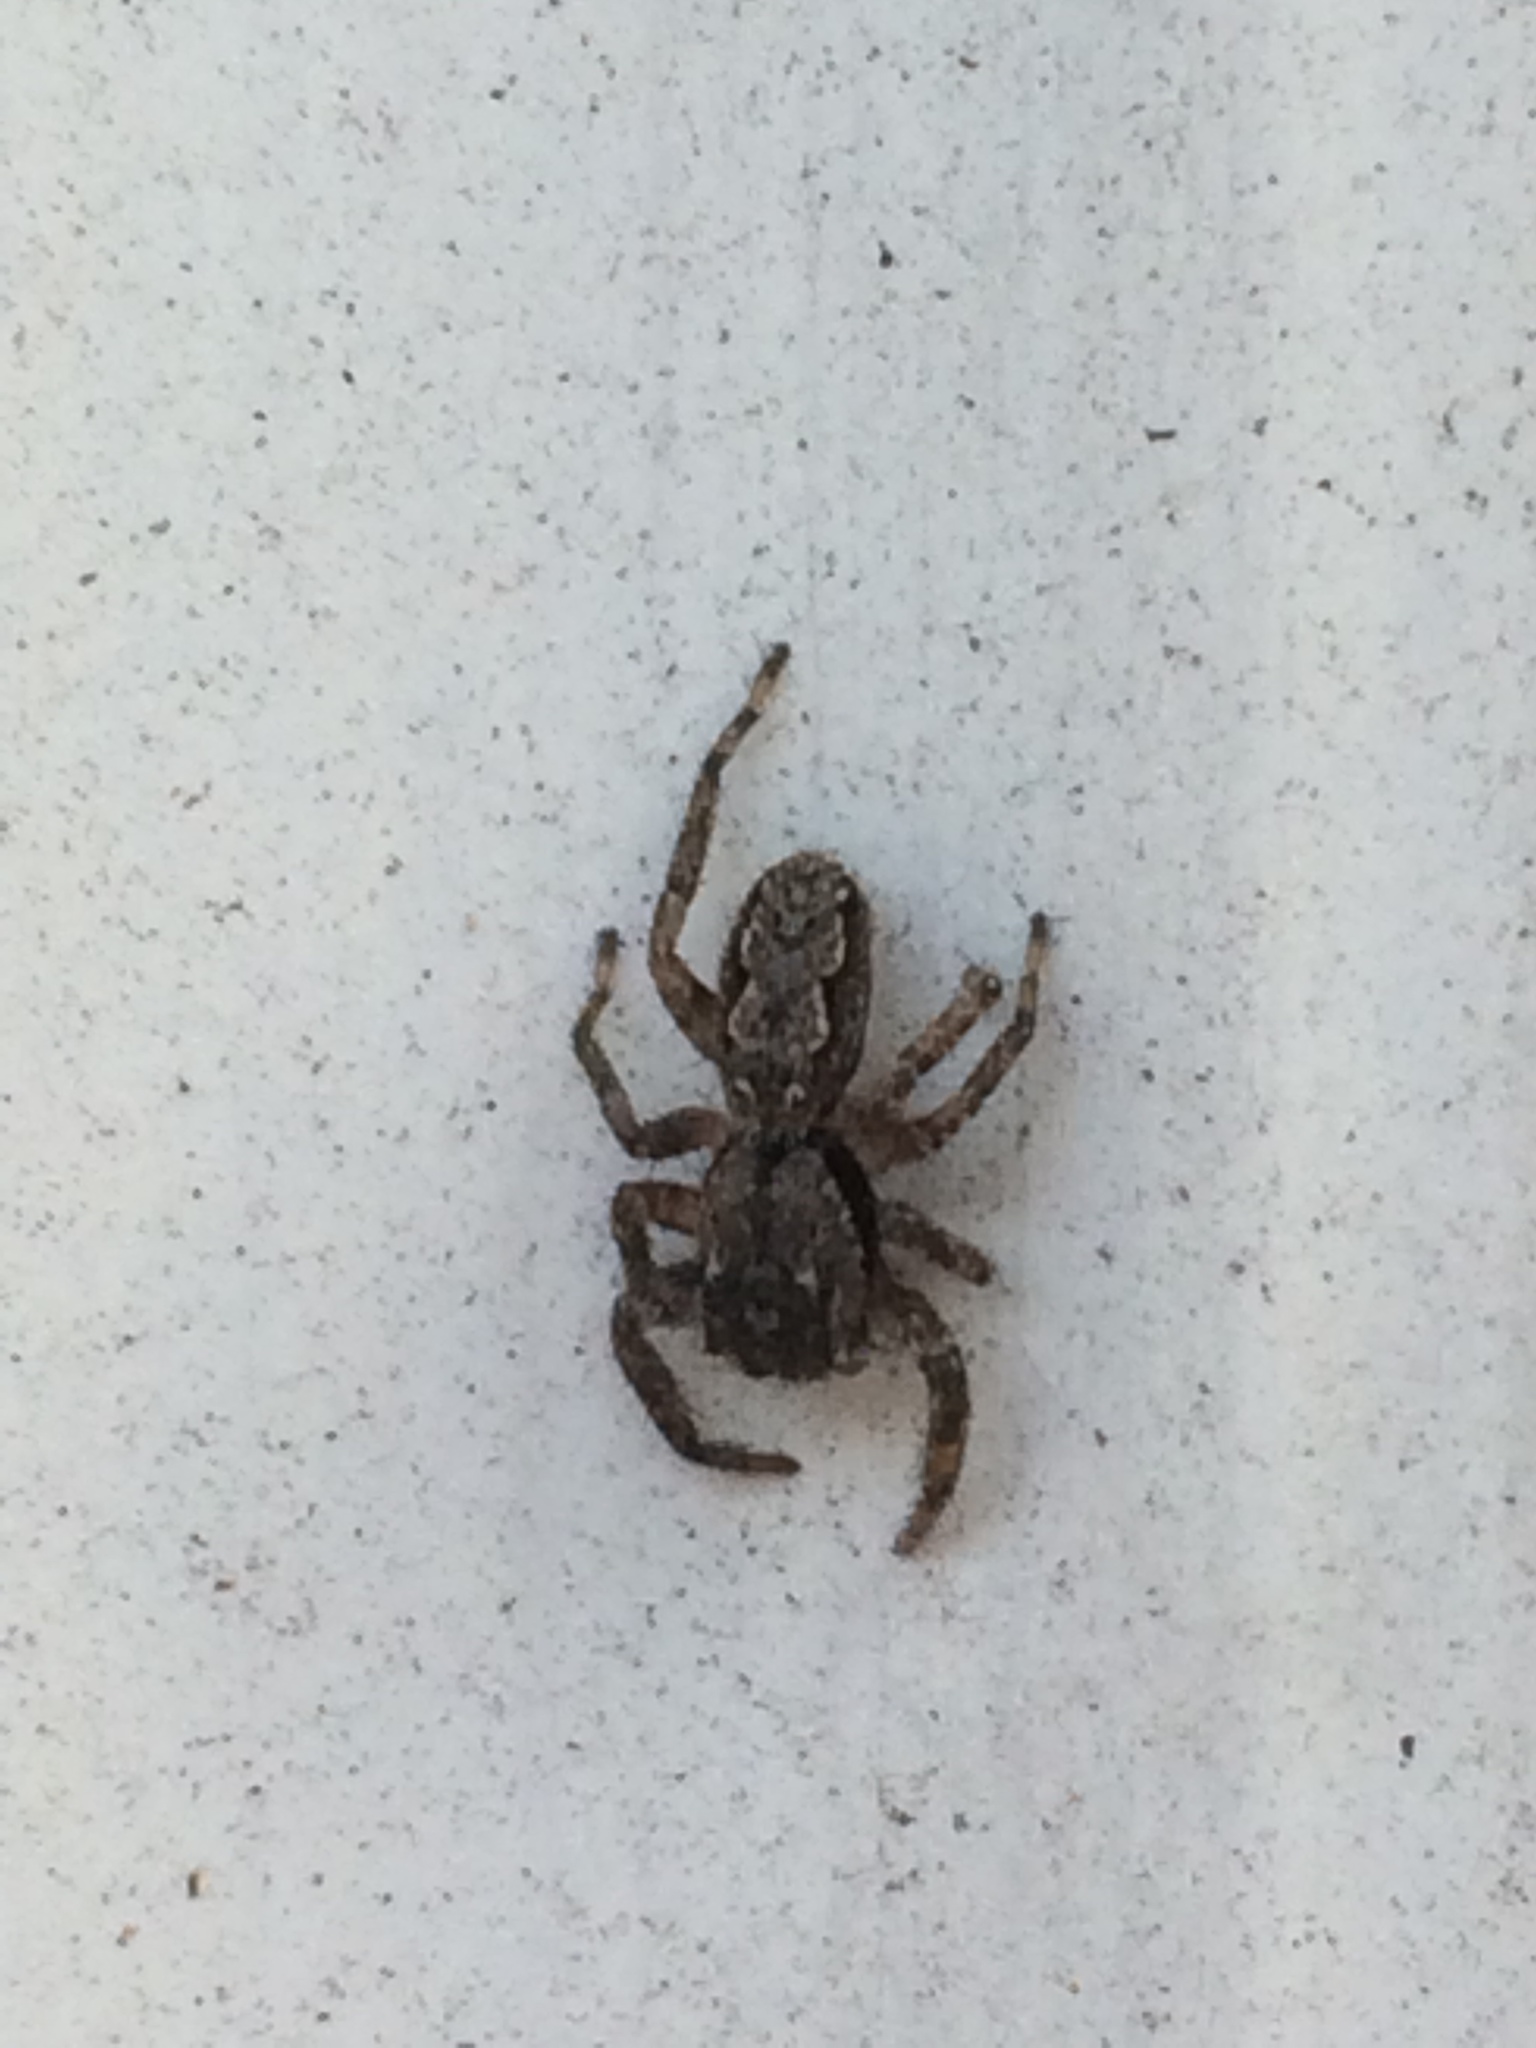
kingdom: Animalia
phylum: Arthropoda
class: Arachnida
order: Araneae
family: Salticidae
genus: Platycryptus
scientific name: Platycryptus undatus
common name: Tan jumping spider
